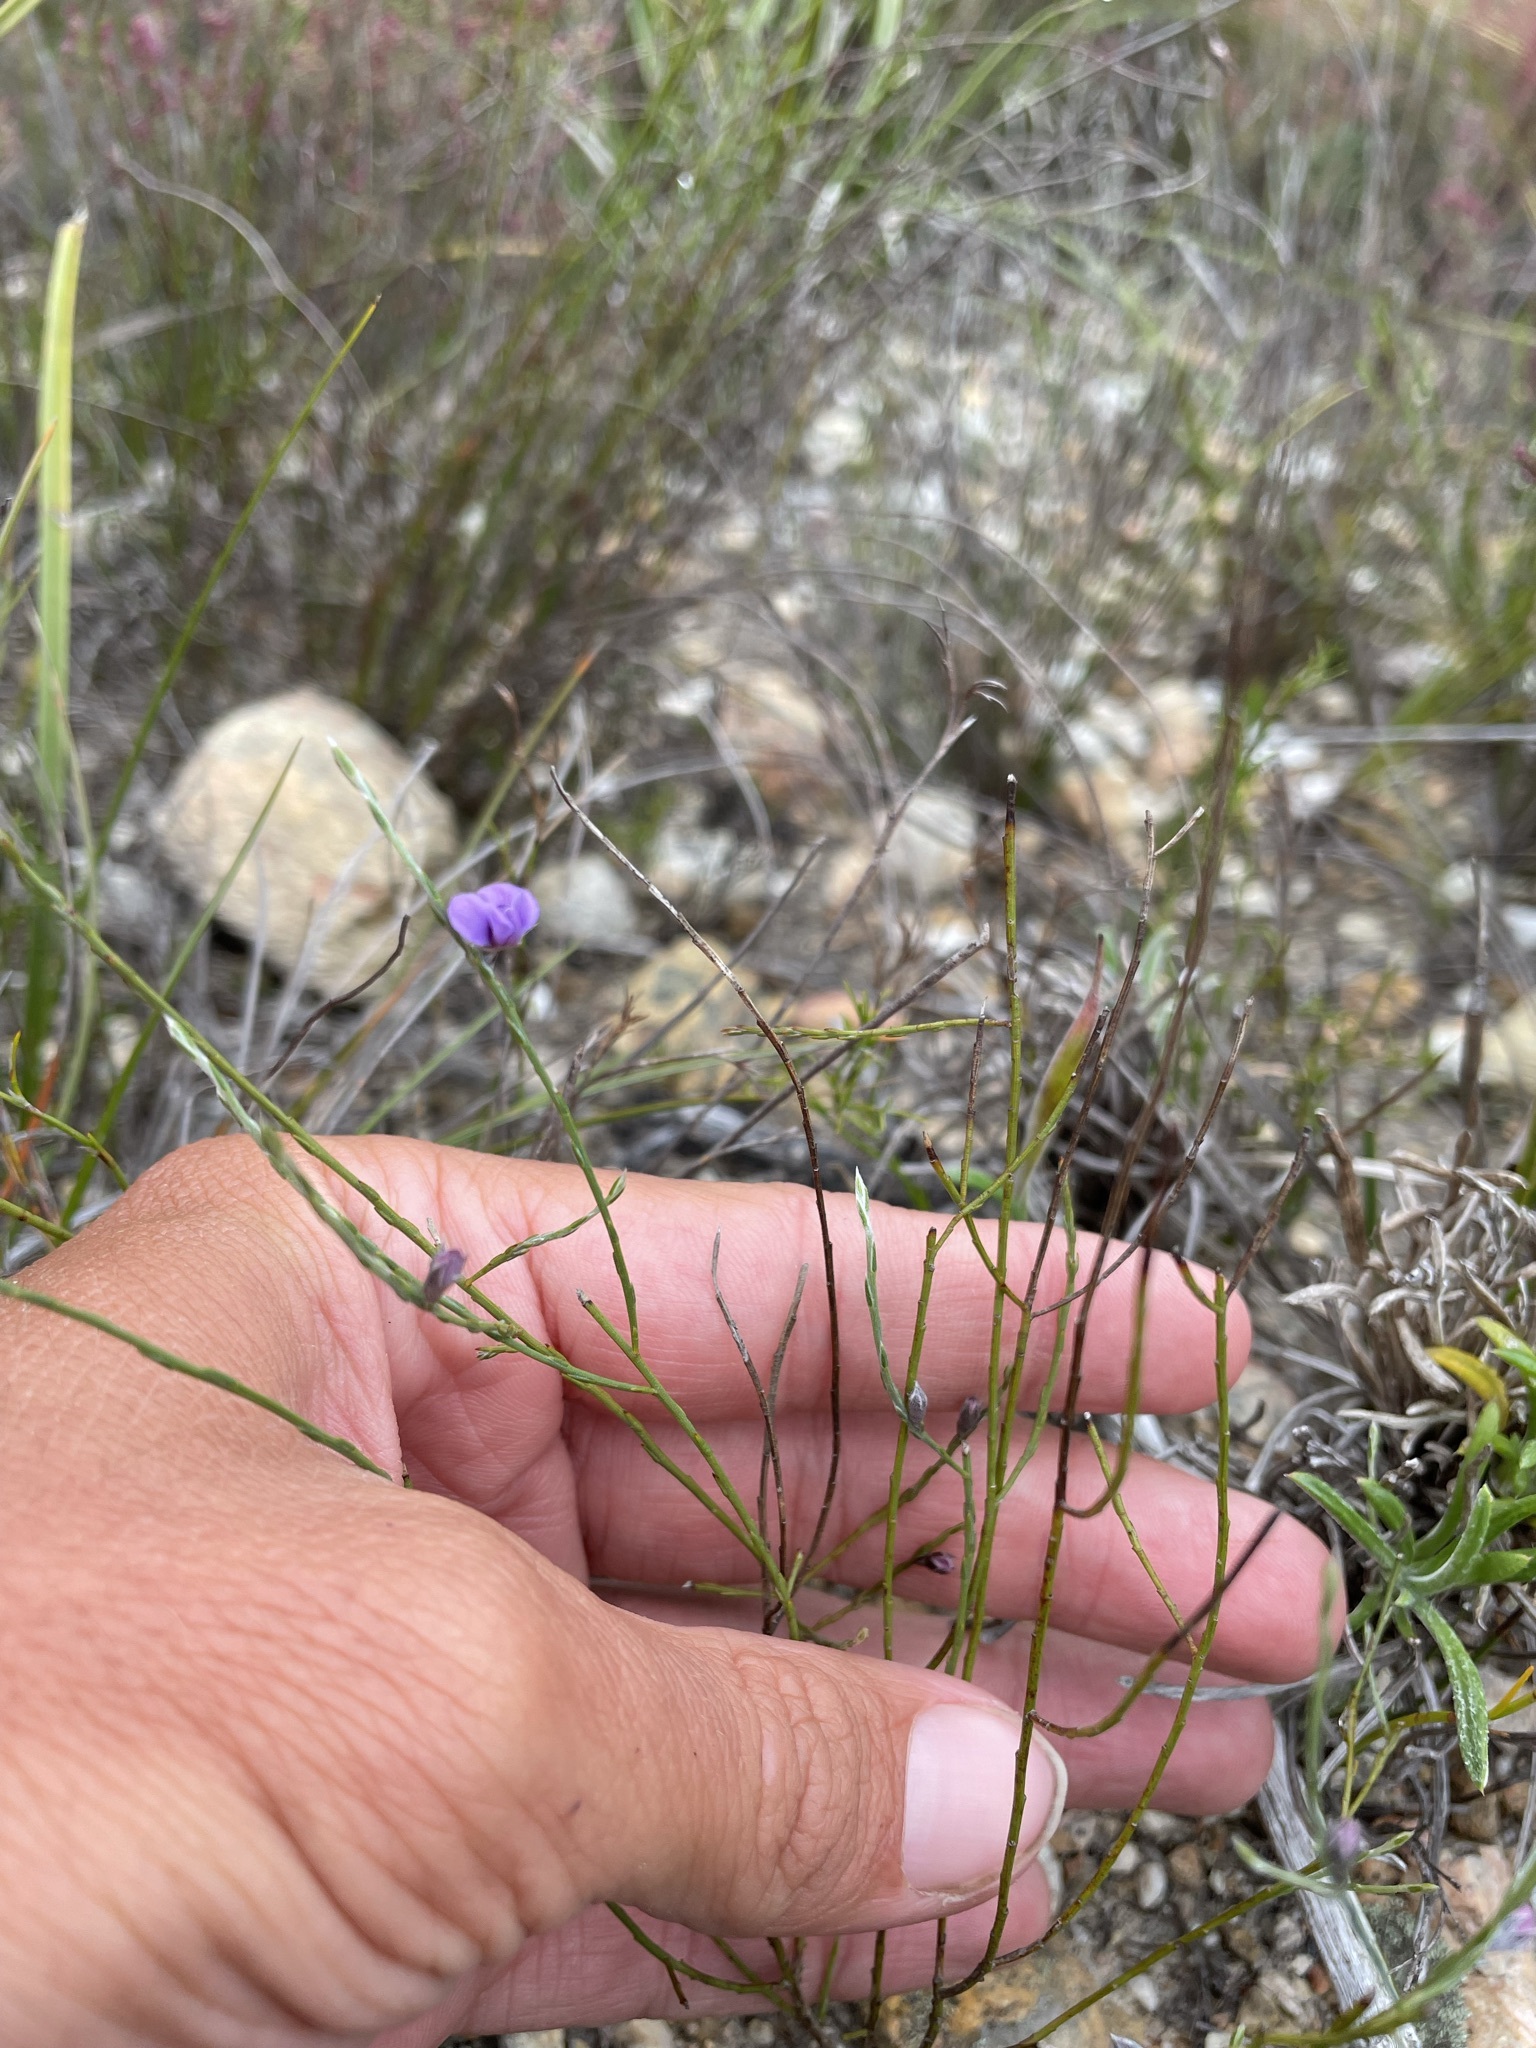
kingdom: Plantae
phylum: Tracheophyta
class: Magnoliopsida
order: Fabales
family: Fabaceae
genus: Amphithalea
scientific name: Amphithalea biovulata
